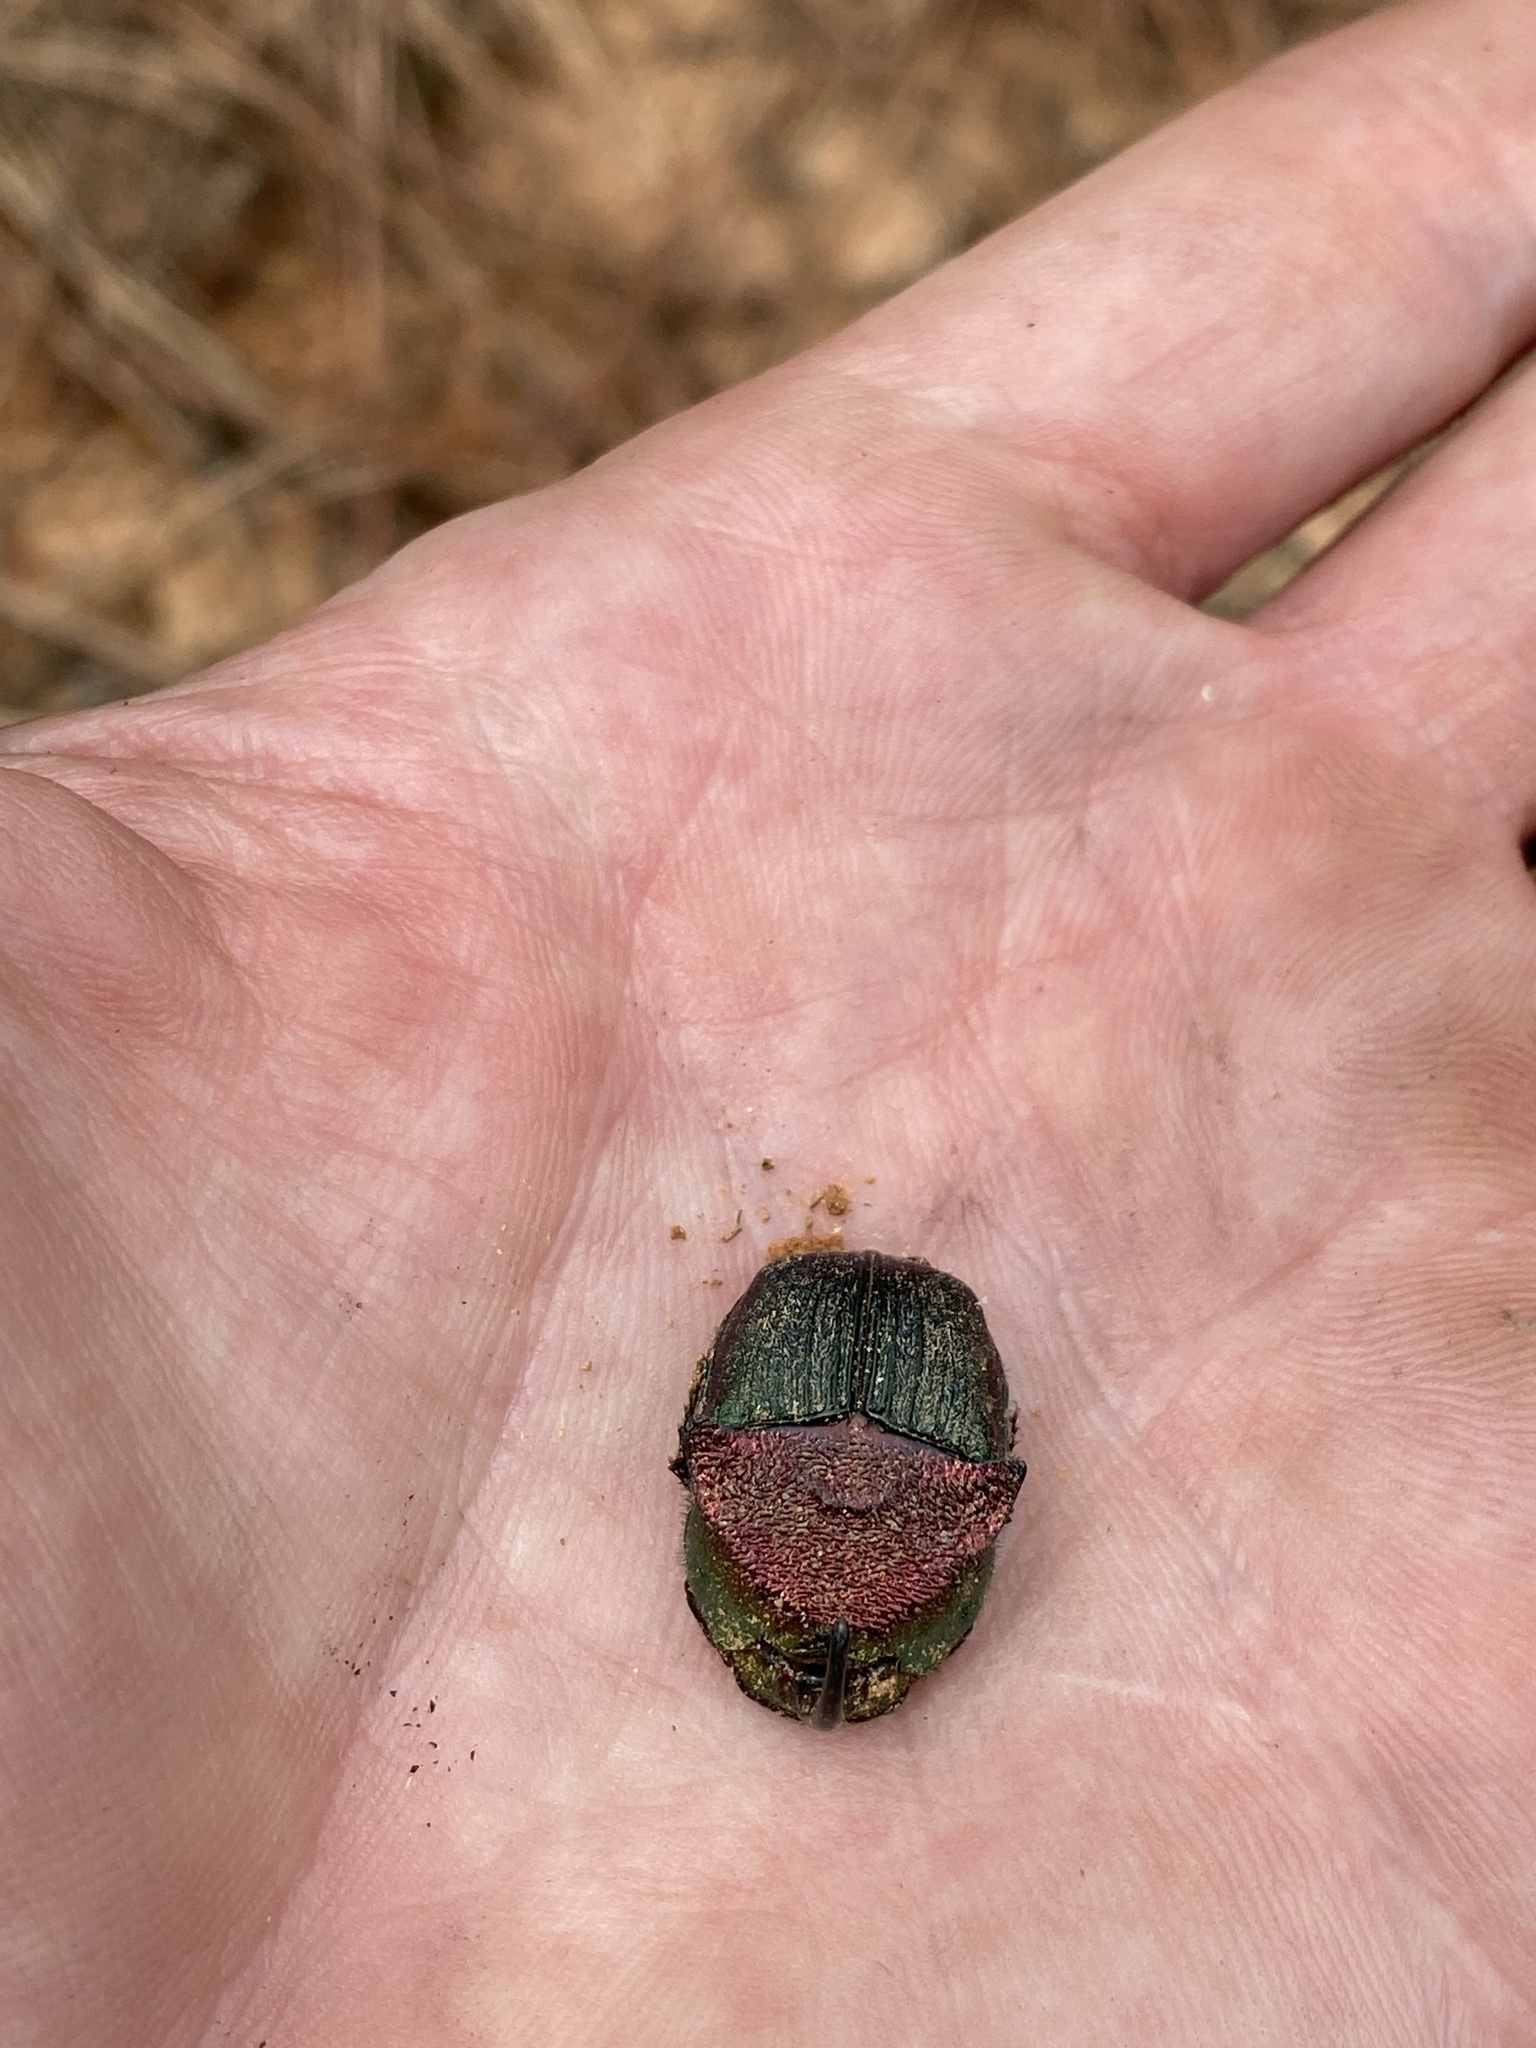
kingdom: Animalia
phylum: Arthropoda
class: Insecta
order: Coleoptera
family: Scarabaeidae
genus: Phanaeus
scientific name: Phanaeus vindex
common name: Rainbow scarab
